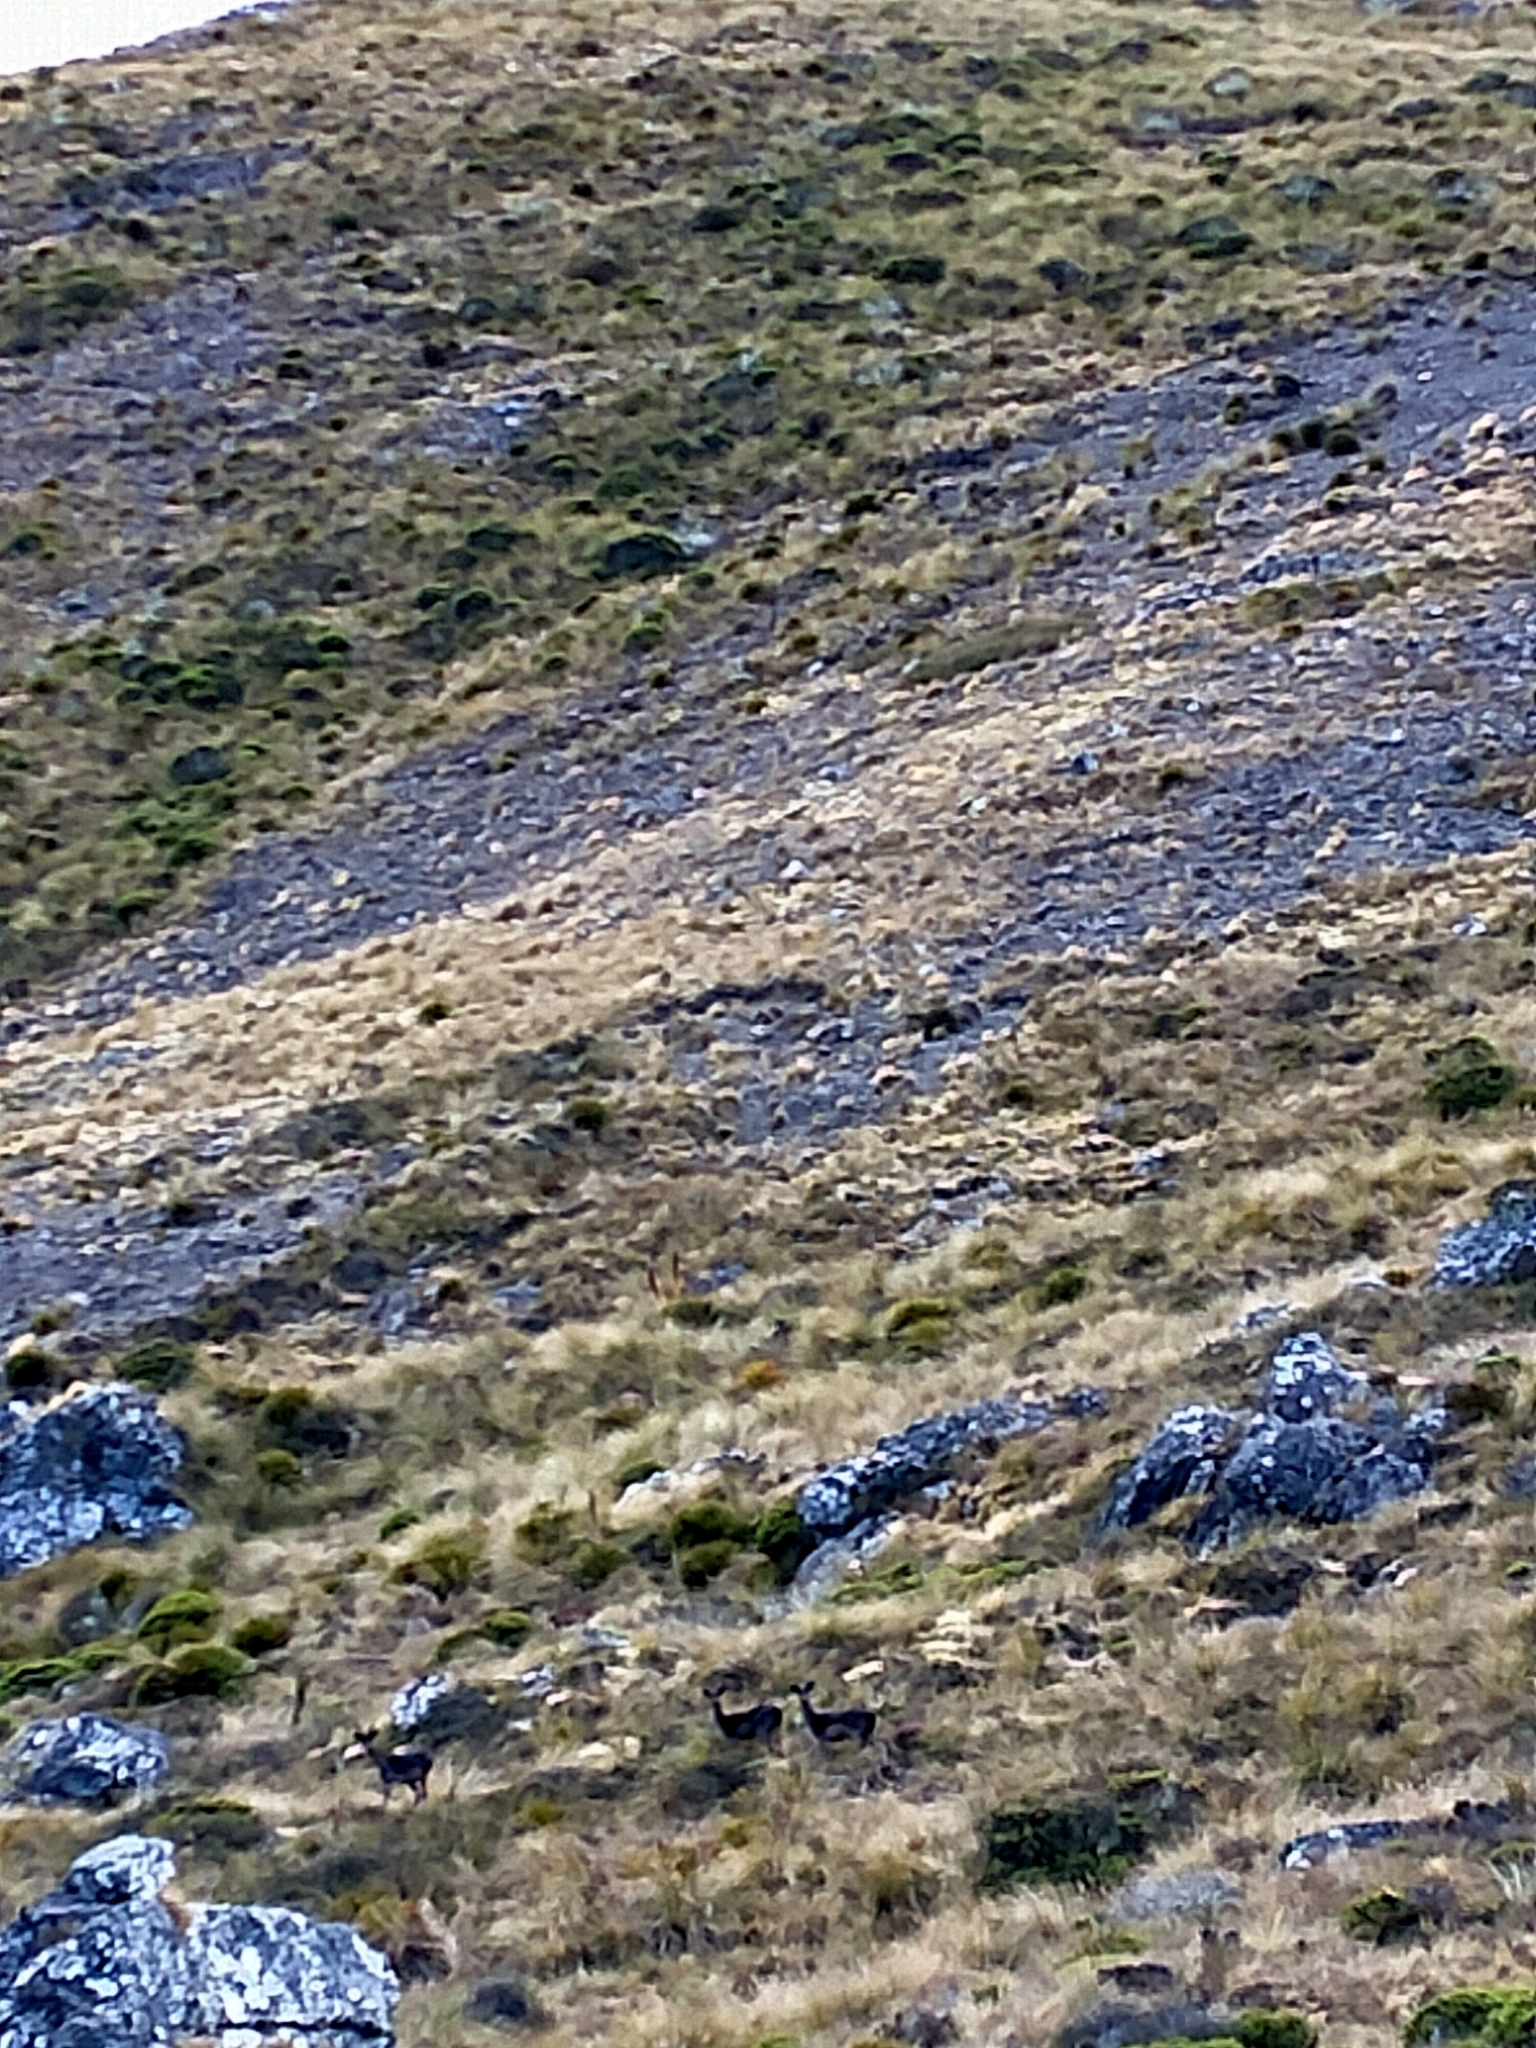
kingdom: Animalia
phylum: Chordata
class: Mammalia
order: Artiodactyla
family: Cervidae
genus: Dama
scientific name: Dama dama
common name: Fallow deer
